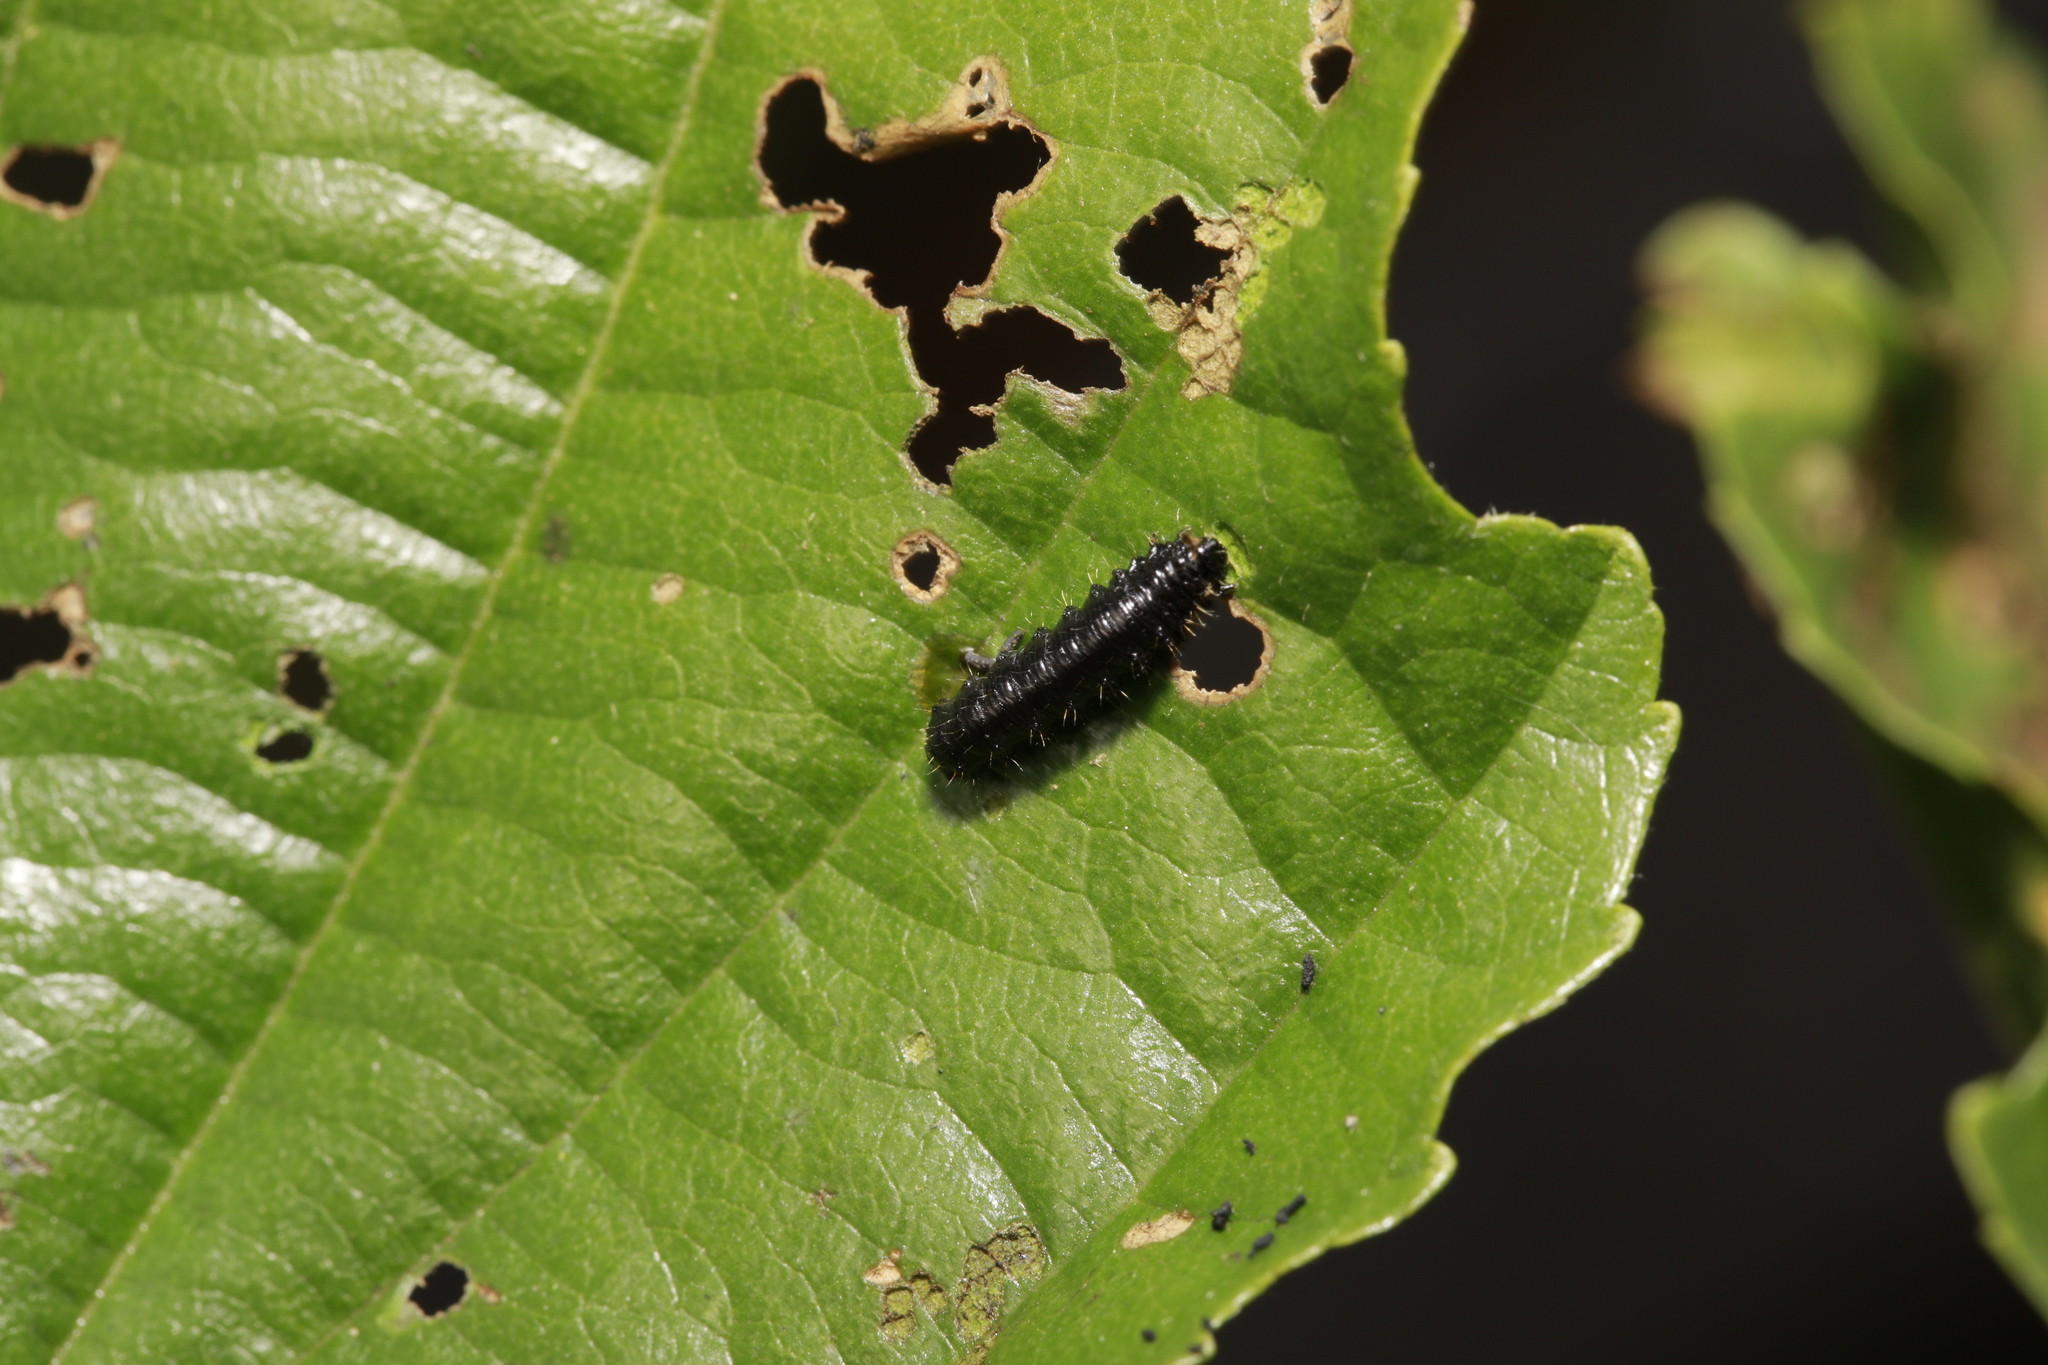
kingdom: Animalia
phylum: Arthropoda
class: Insecta
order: Coleoptera
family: Chrysomelidae
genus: Agelastica
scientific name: Agelastica alni
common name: Alder leaf beetle
